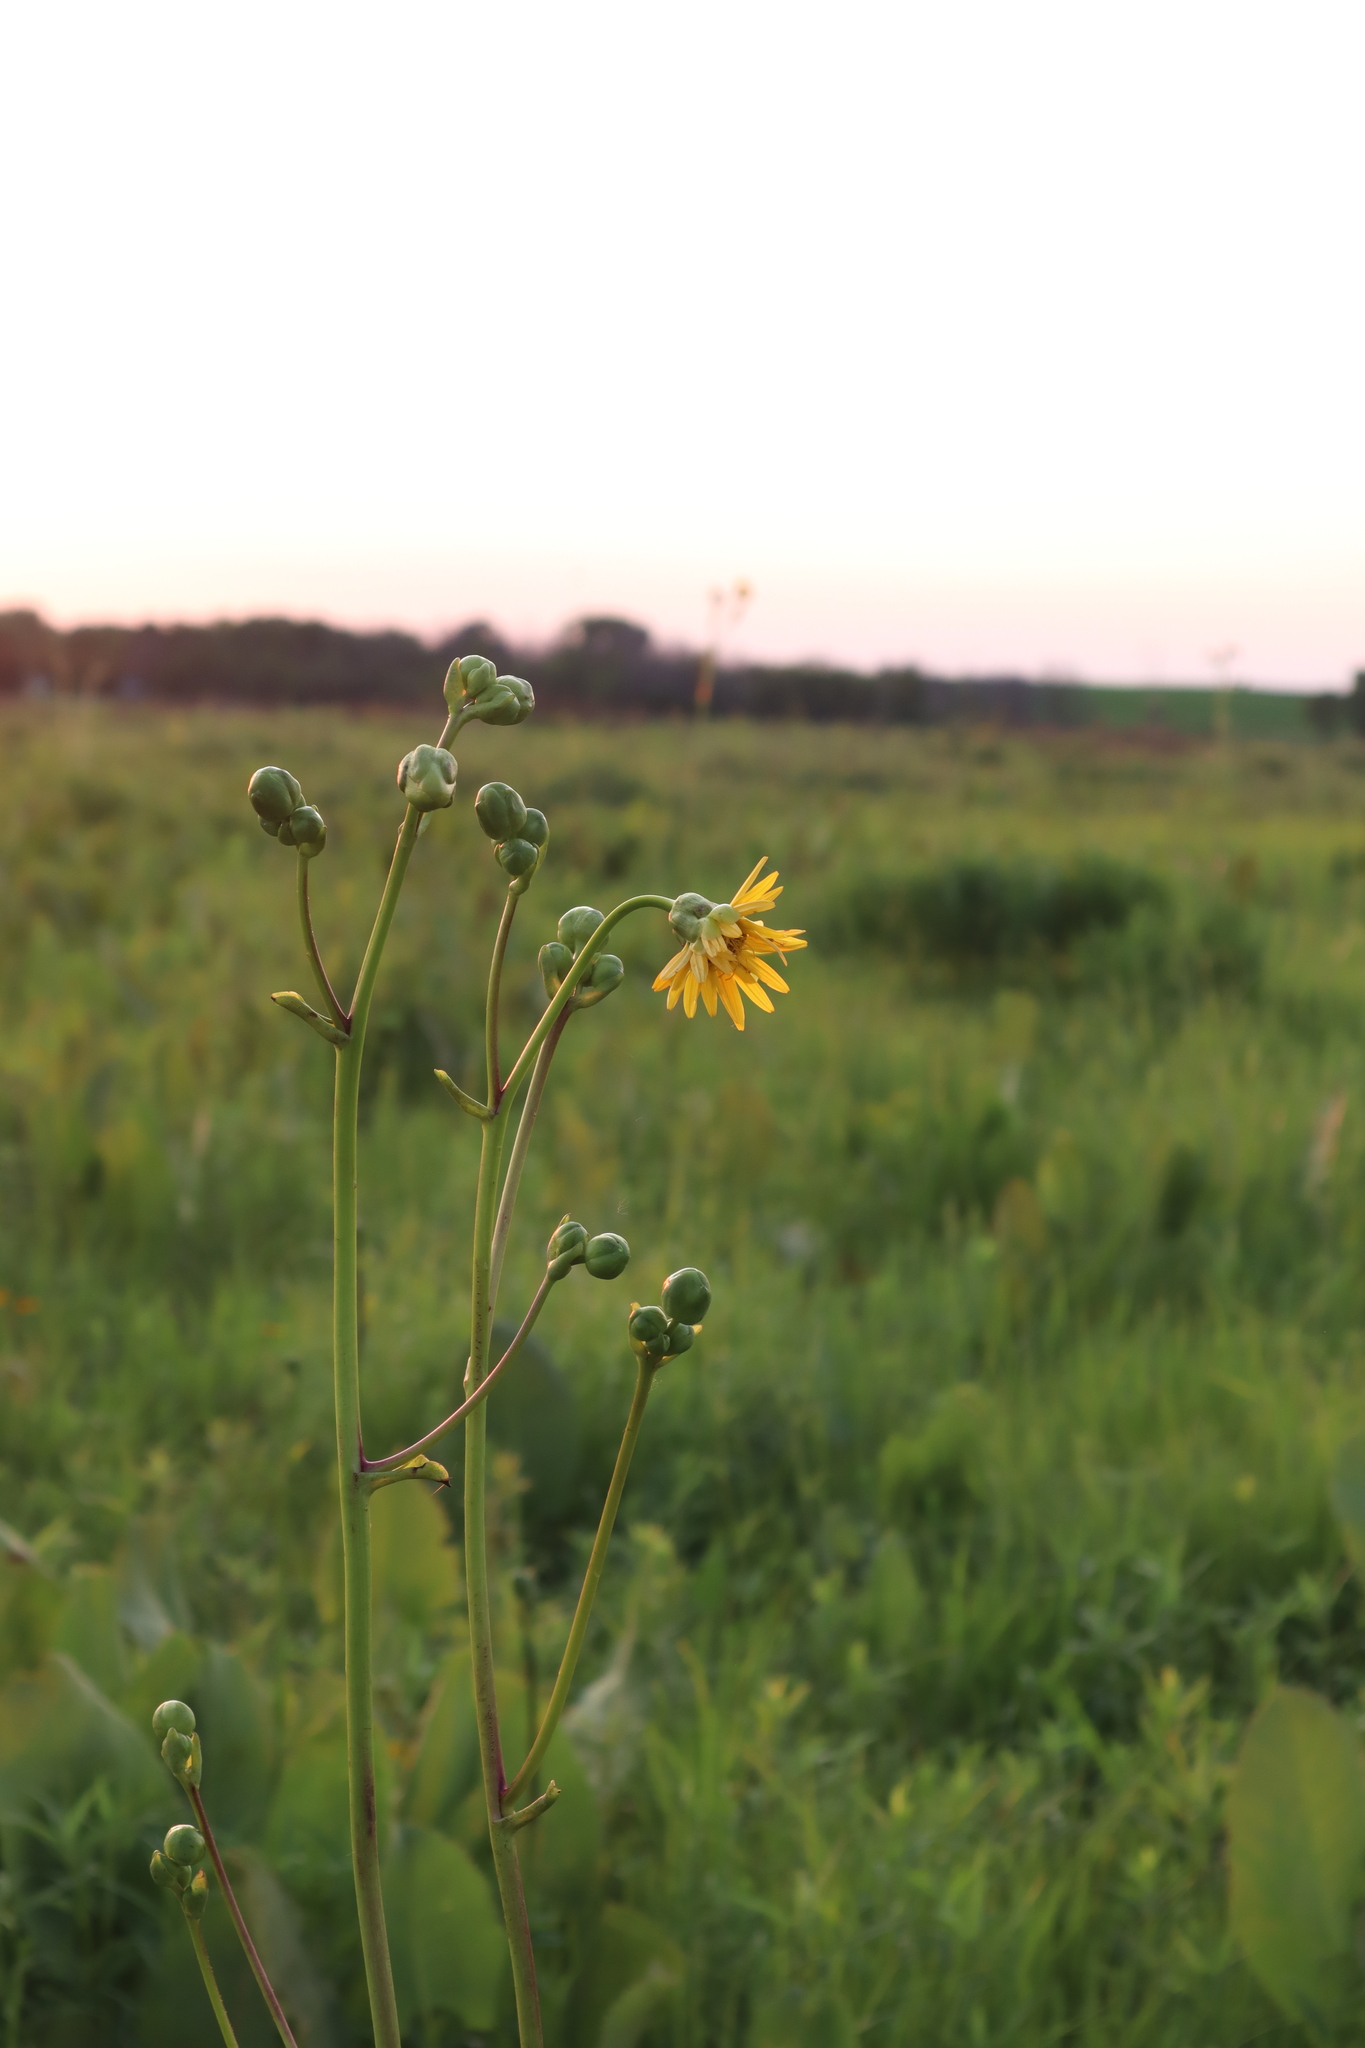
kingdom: Plantae
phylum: Tracheophyta
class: Magnoliopsida
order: Asterales
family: Asteraceae
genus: Silphium
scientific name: Silphium terebinthinaceum
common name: Basal-leaf rosinweed
